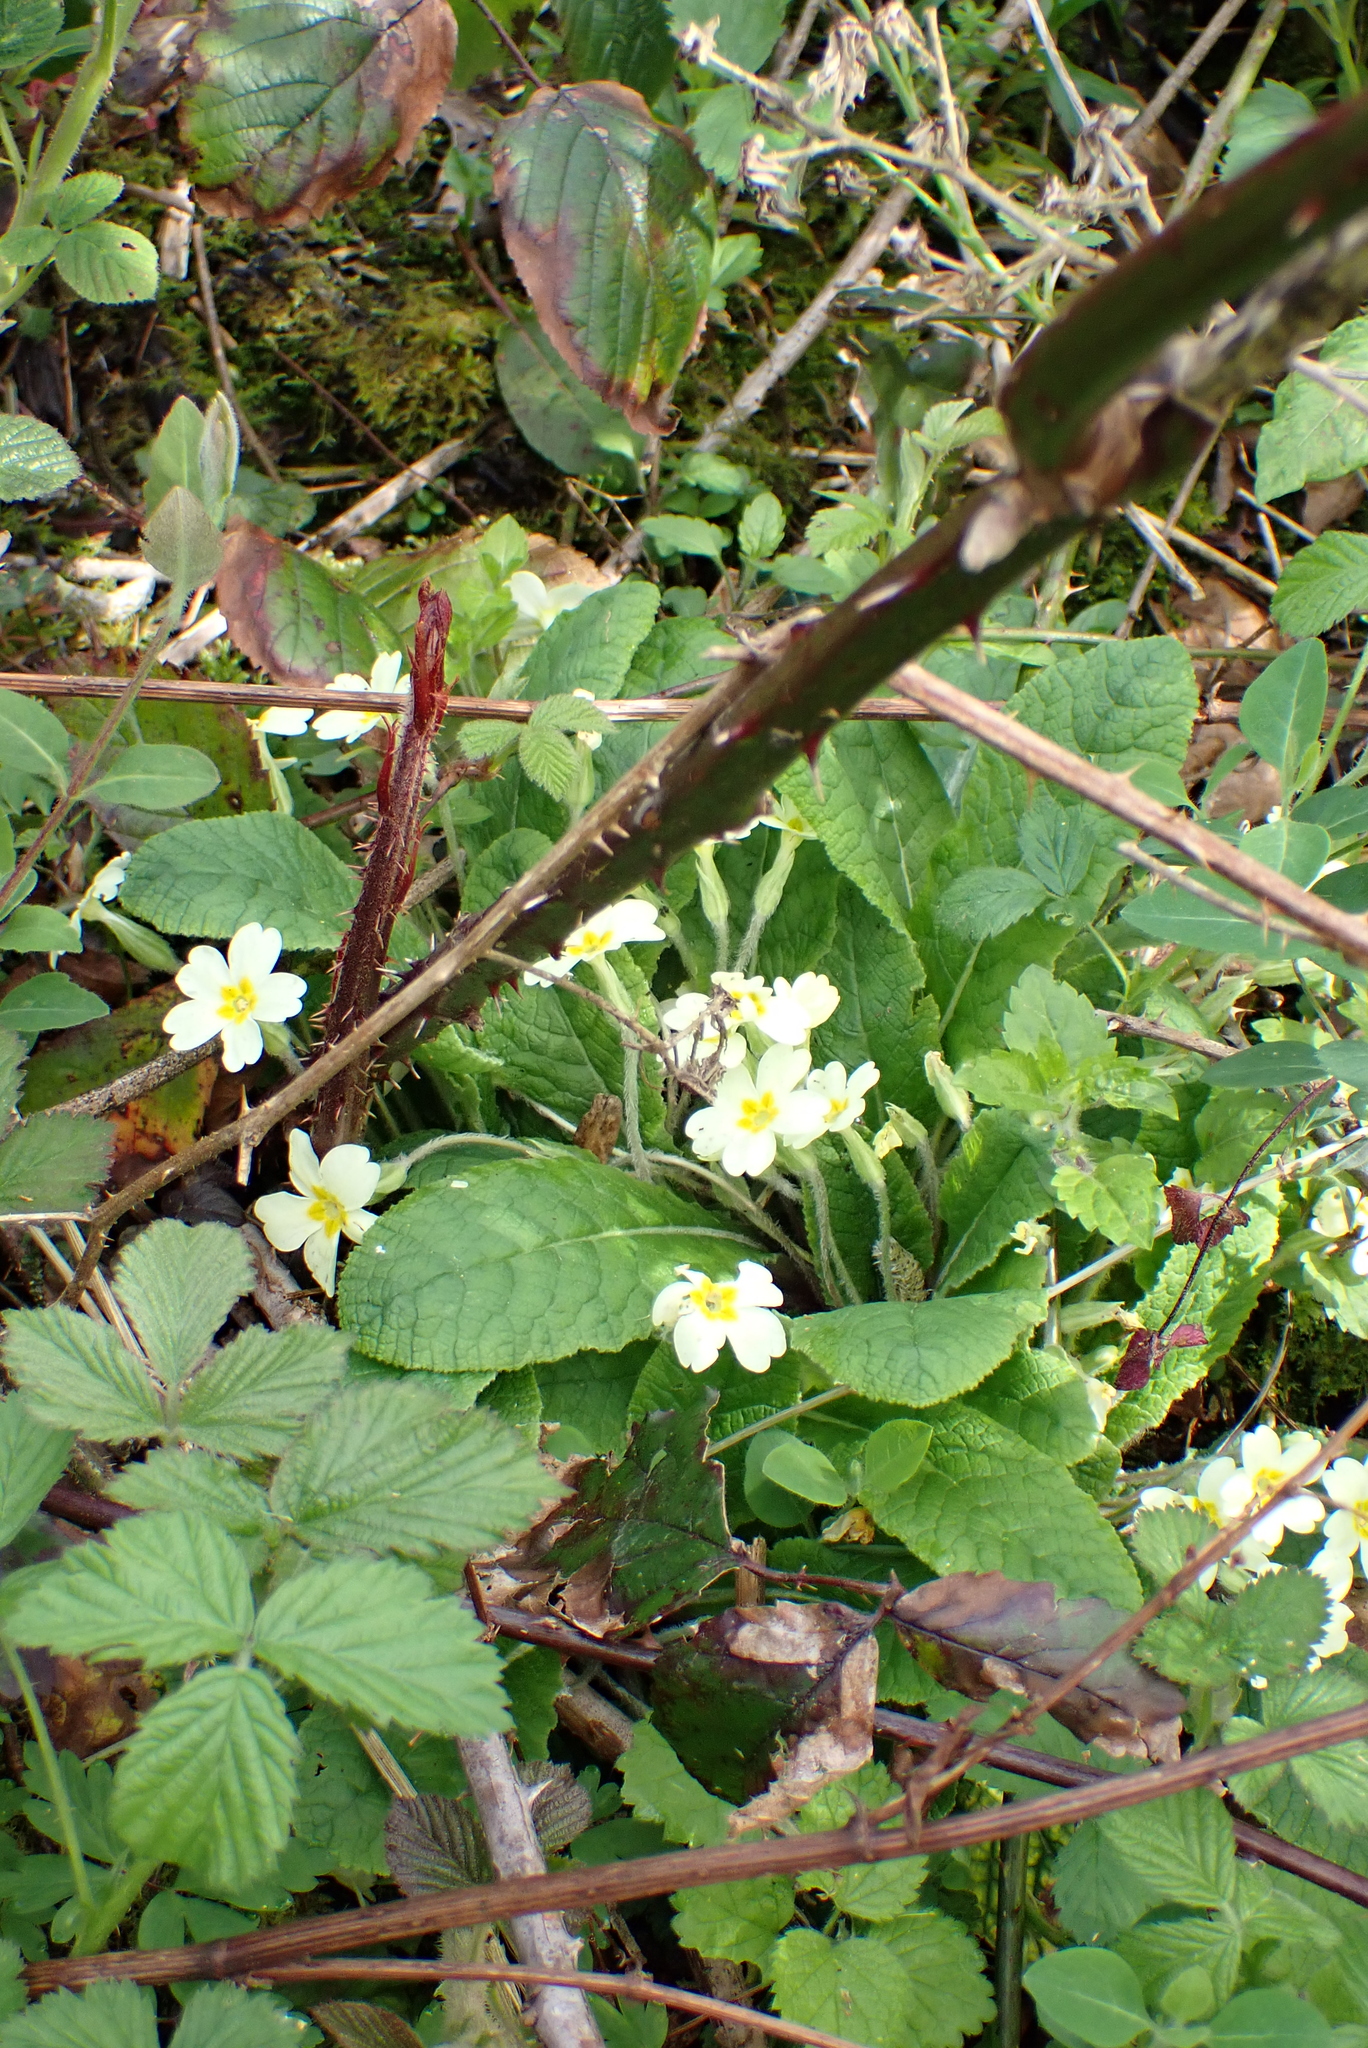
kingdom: Plantae
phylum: Tracheophyta
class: Magnoliopsida
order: Ericales
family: Primulaceae
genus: Primula
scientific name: Primula vulgaris
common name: Primrose
